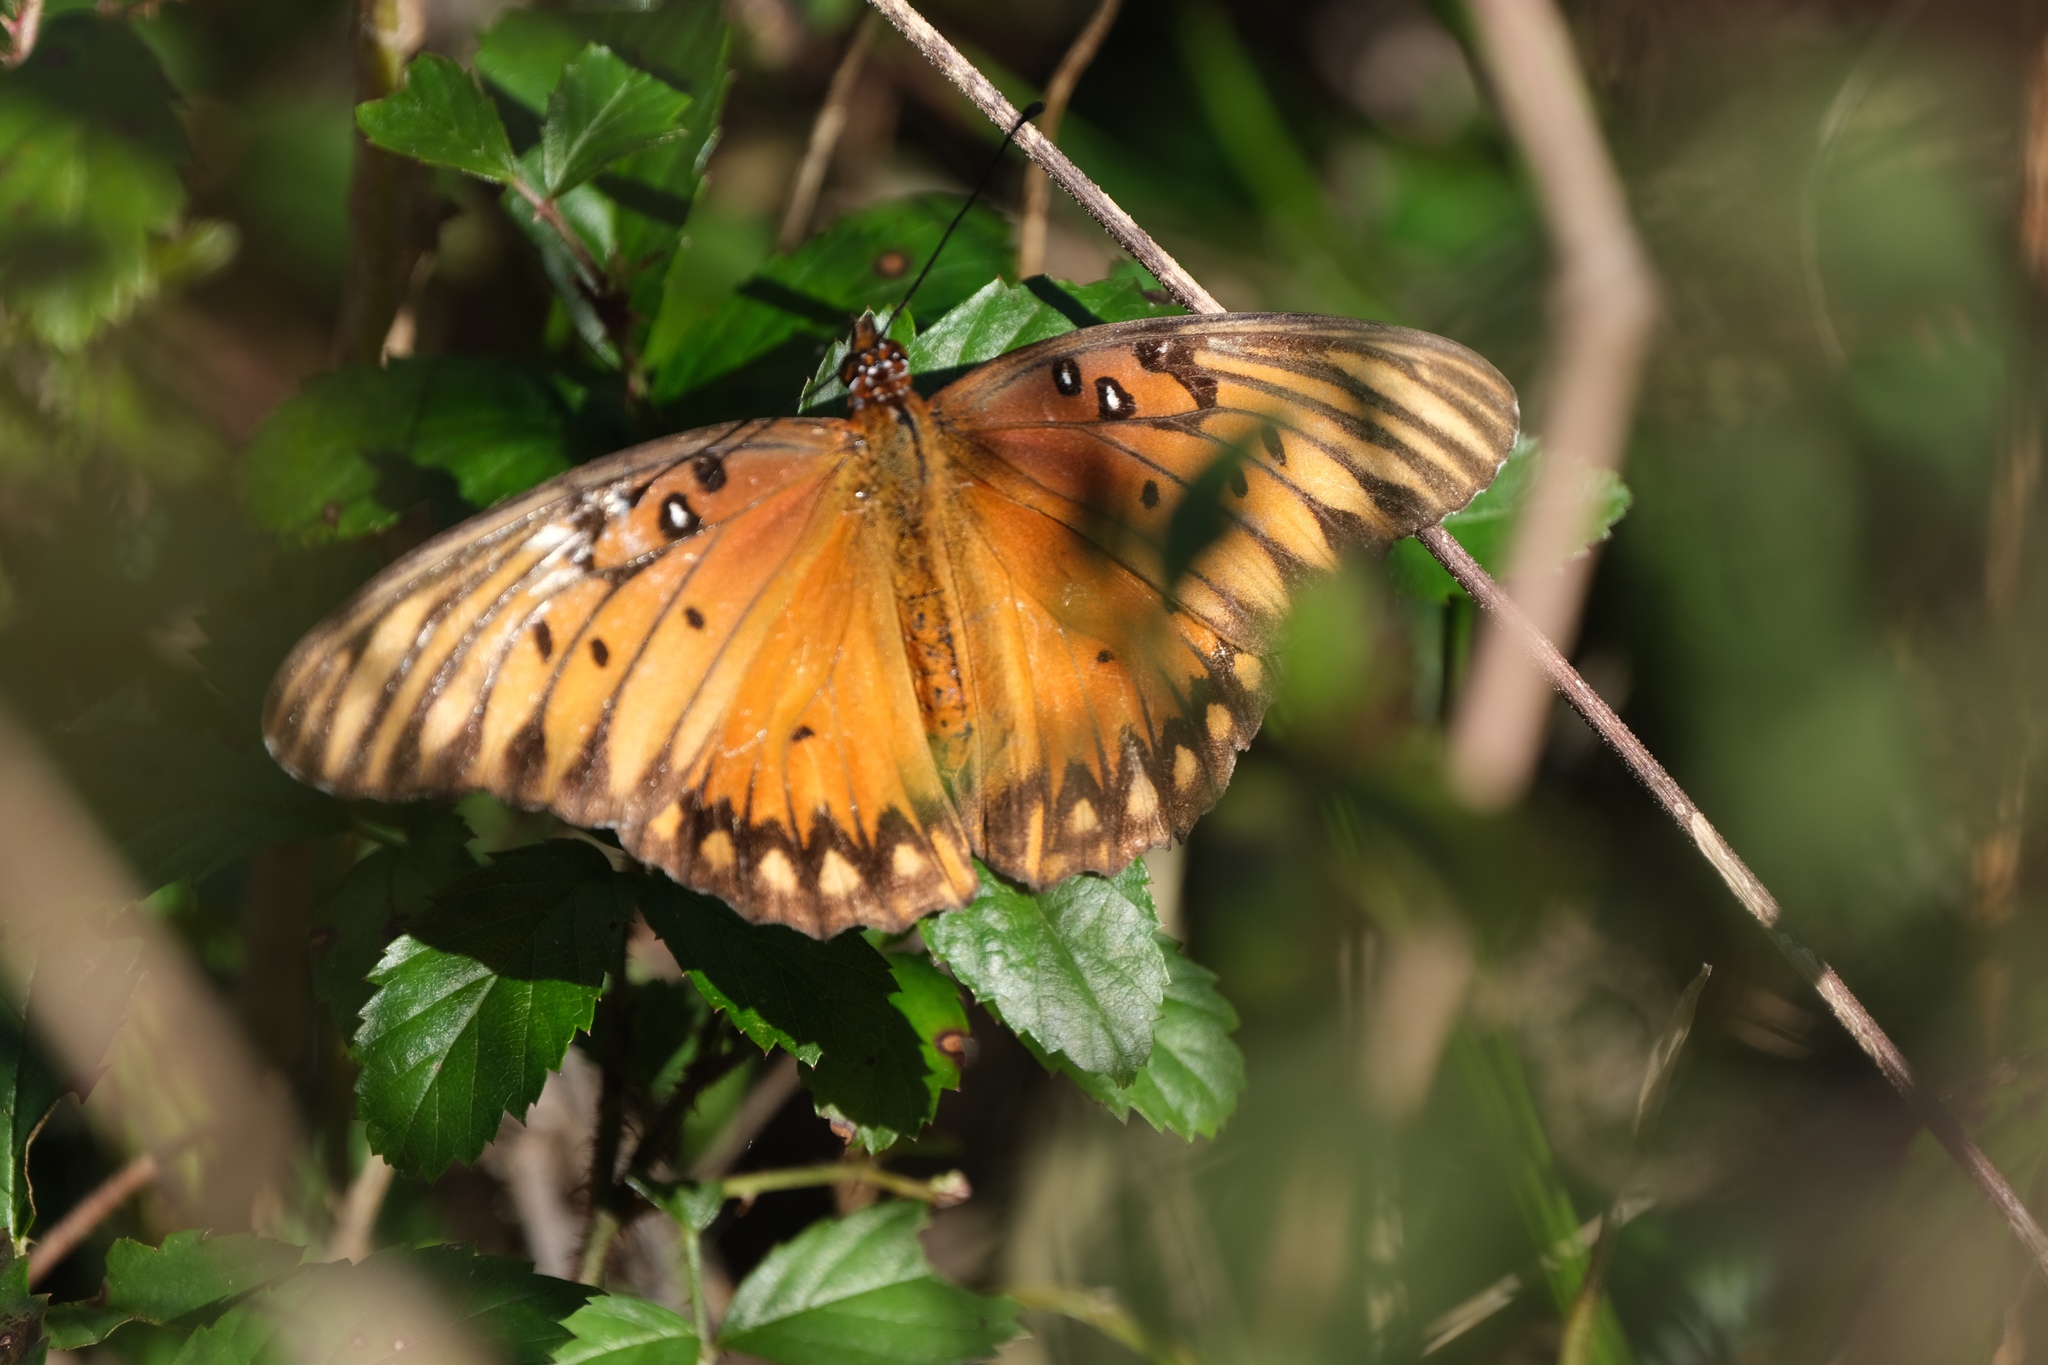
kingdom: Animalia
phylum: Arthropoda
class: Insecta
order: Lepidoptera
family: Nymphalidae
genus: Dione
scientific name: Dione vanillae
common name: Gulf fritillary
